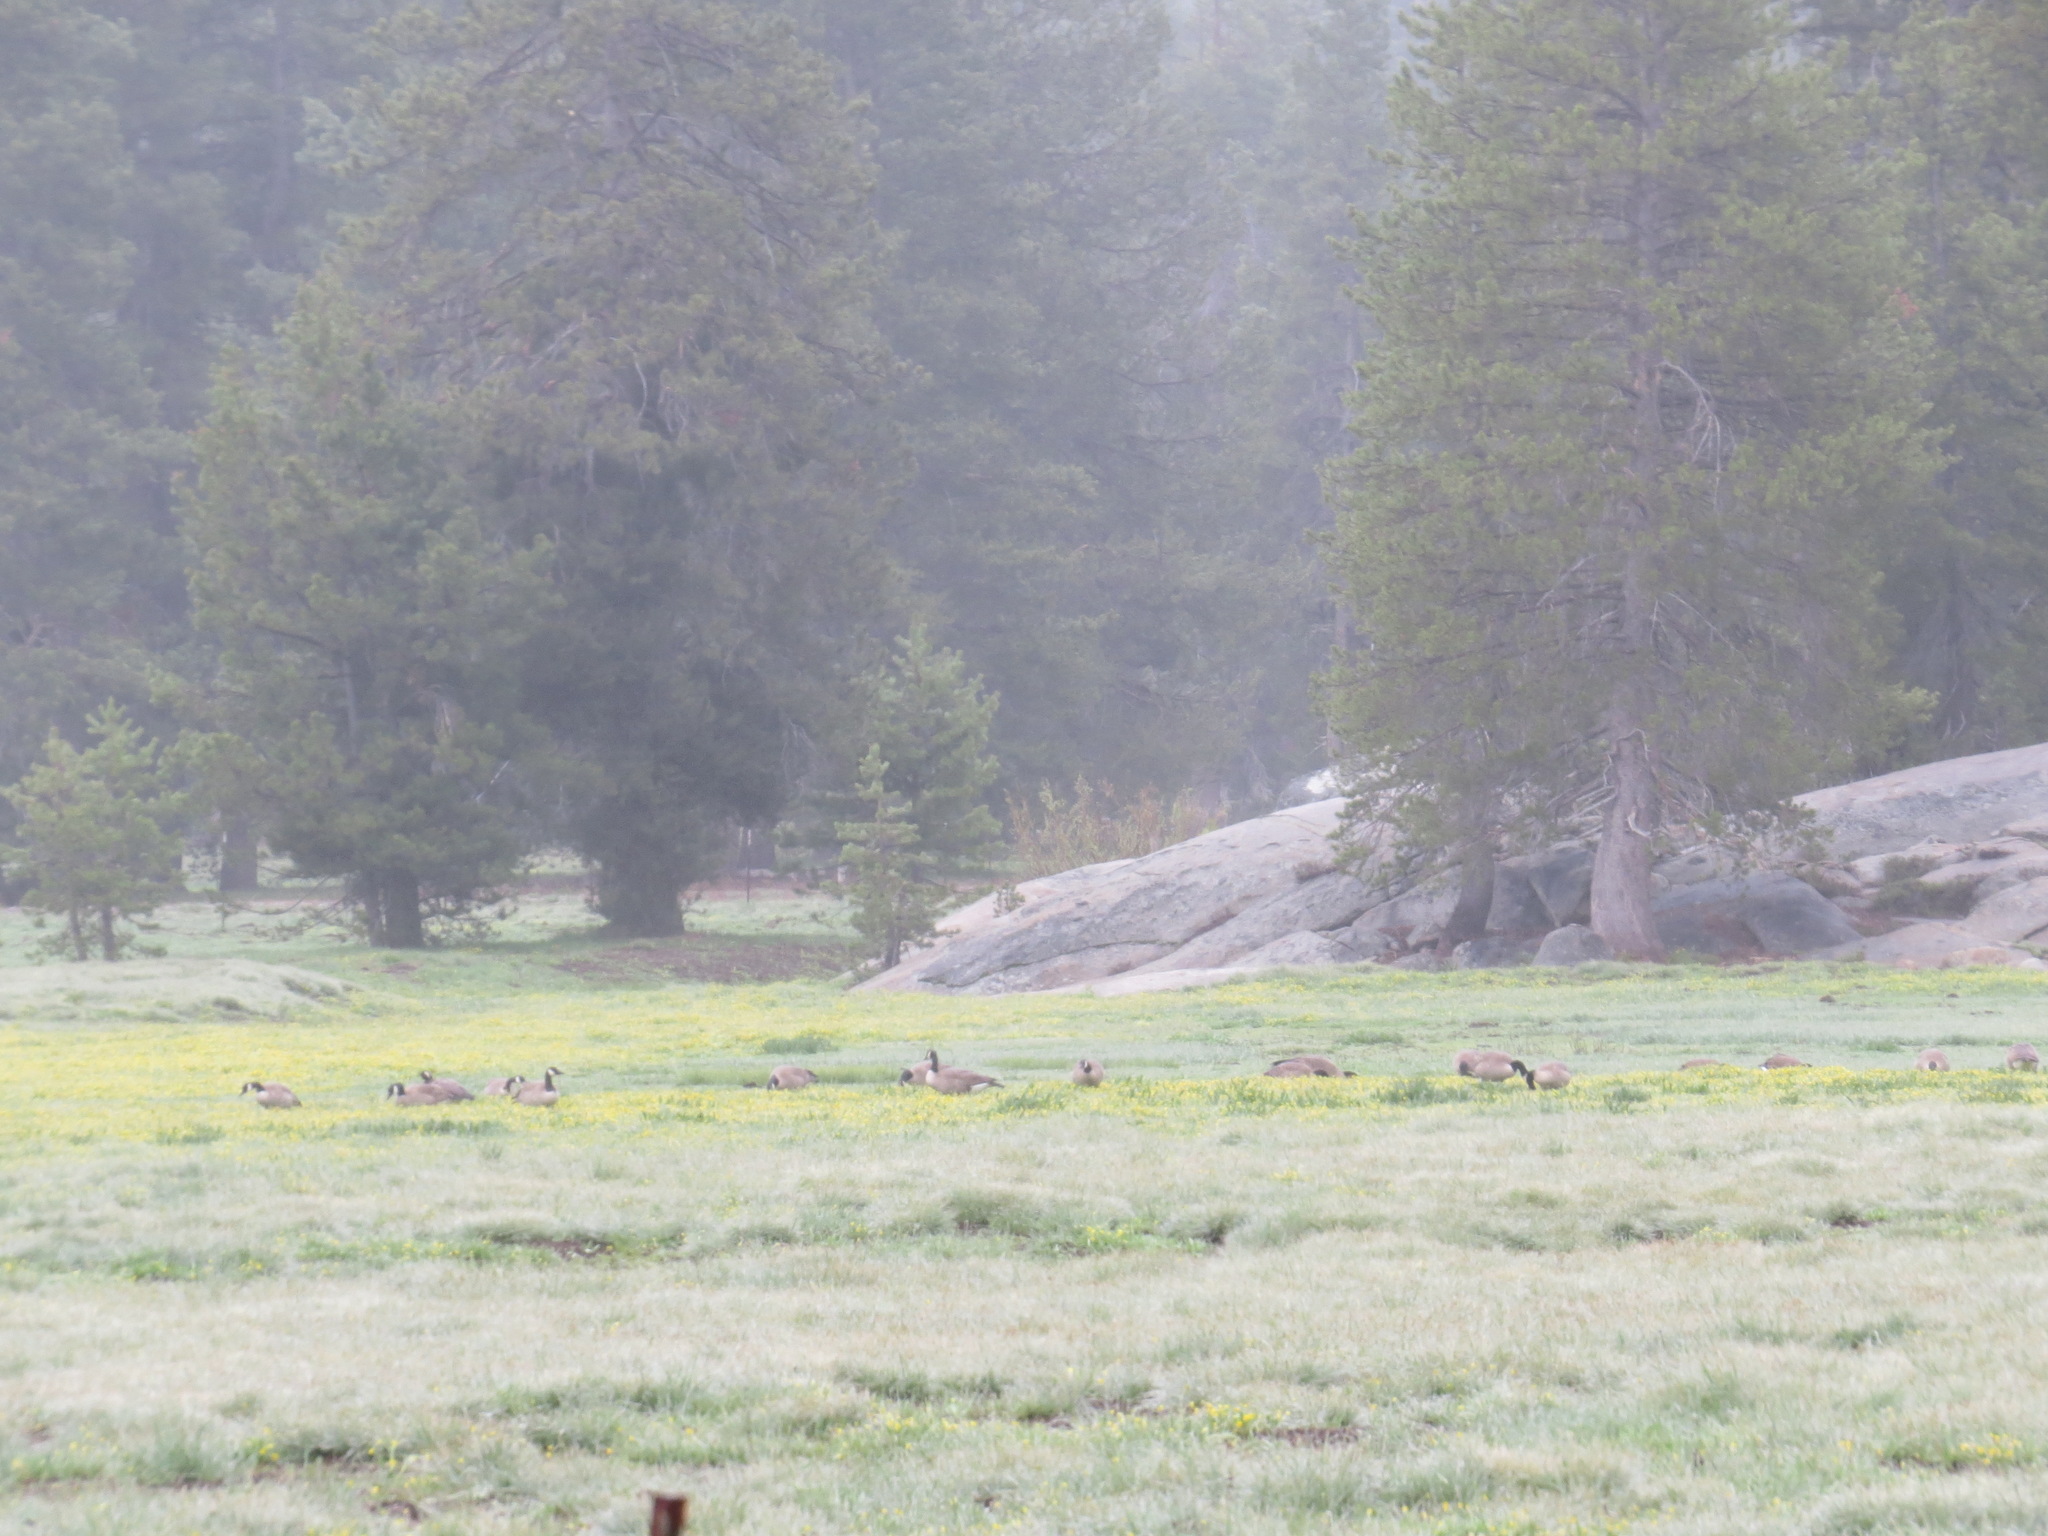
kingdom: Animalia
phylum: Chordata
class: Aves
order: Anseriformes
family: Anatidae
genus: Branta
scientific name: Branta canadensis
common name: Canada goose
